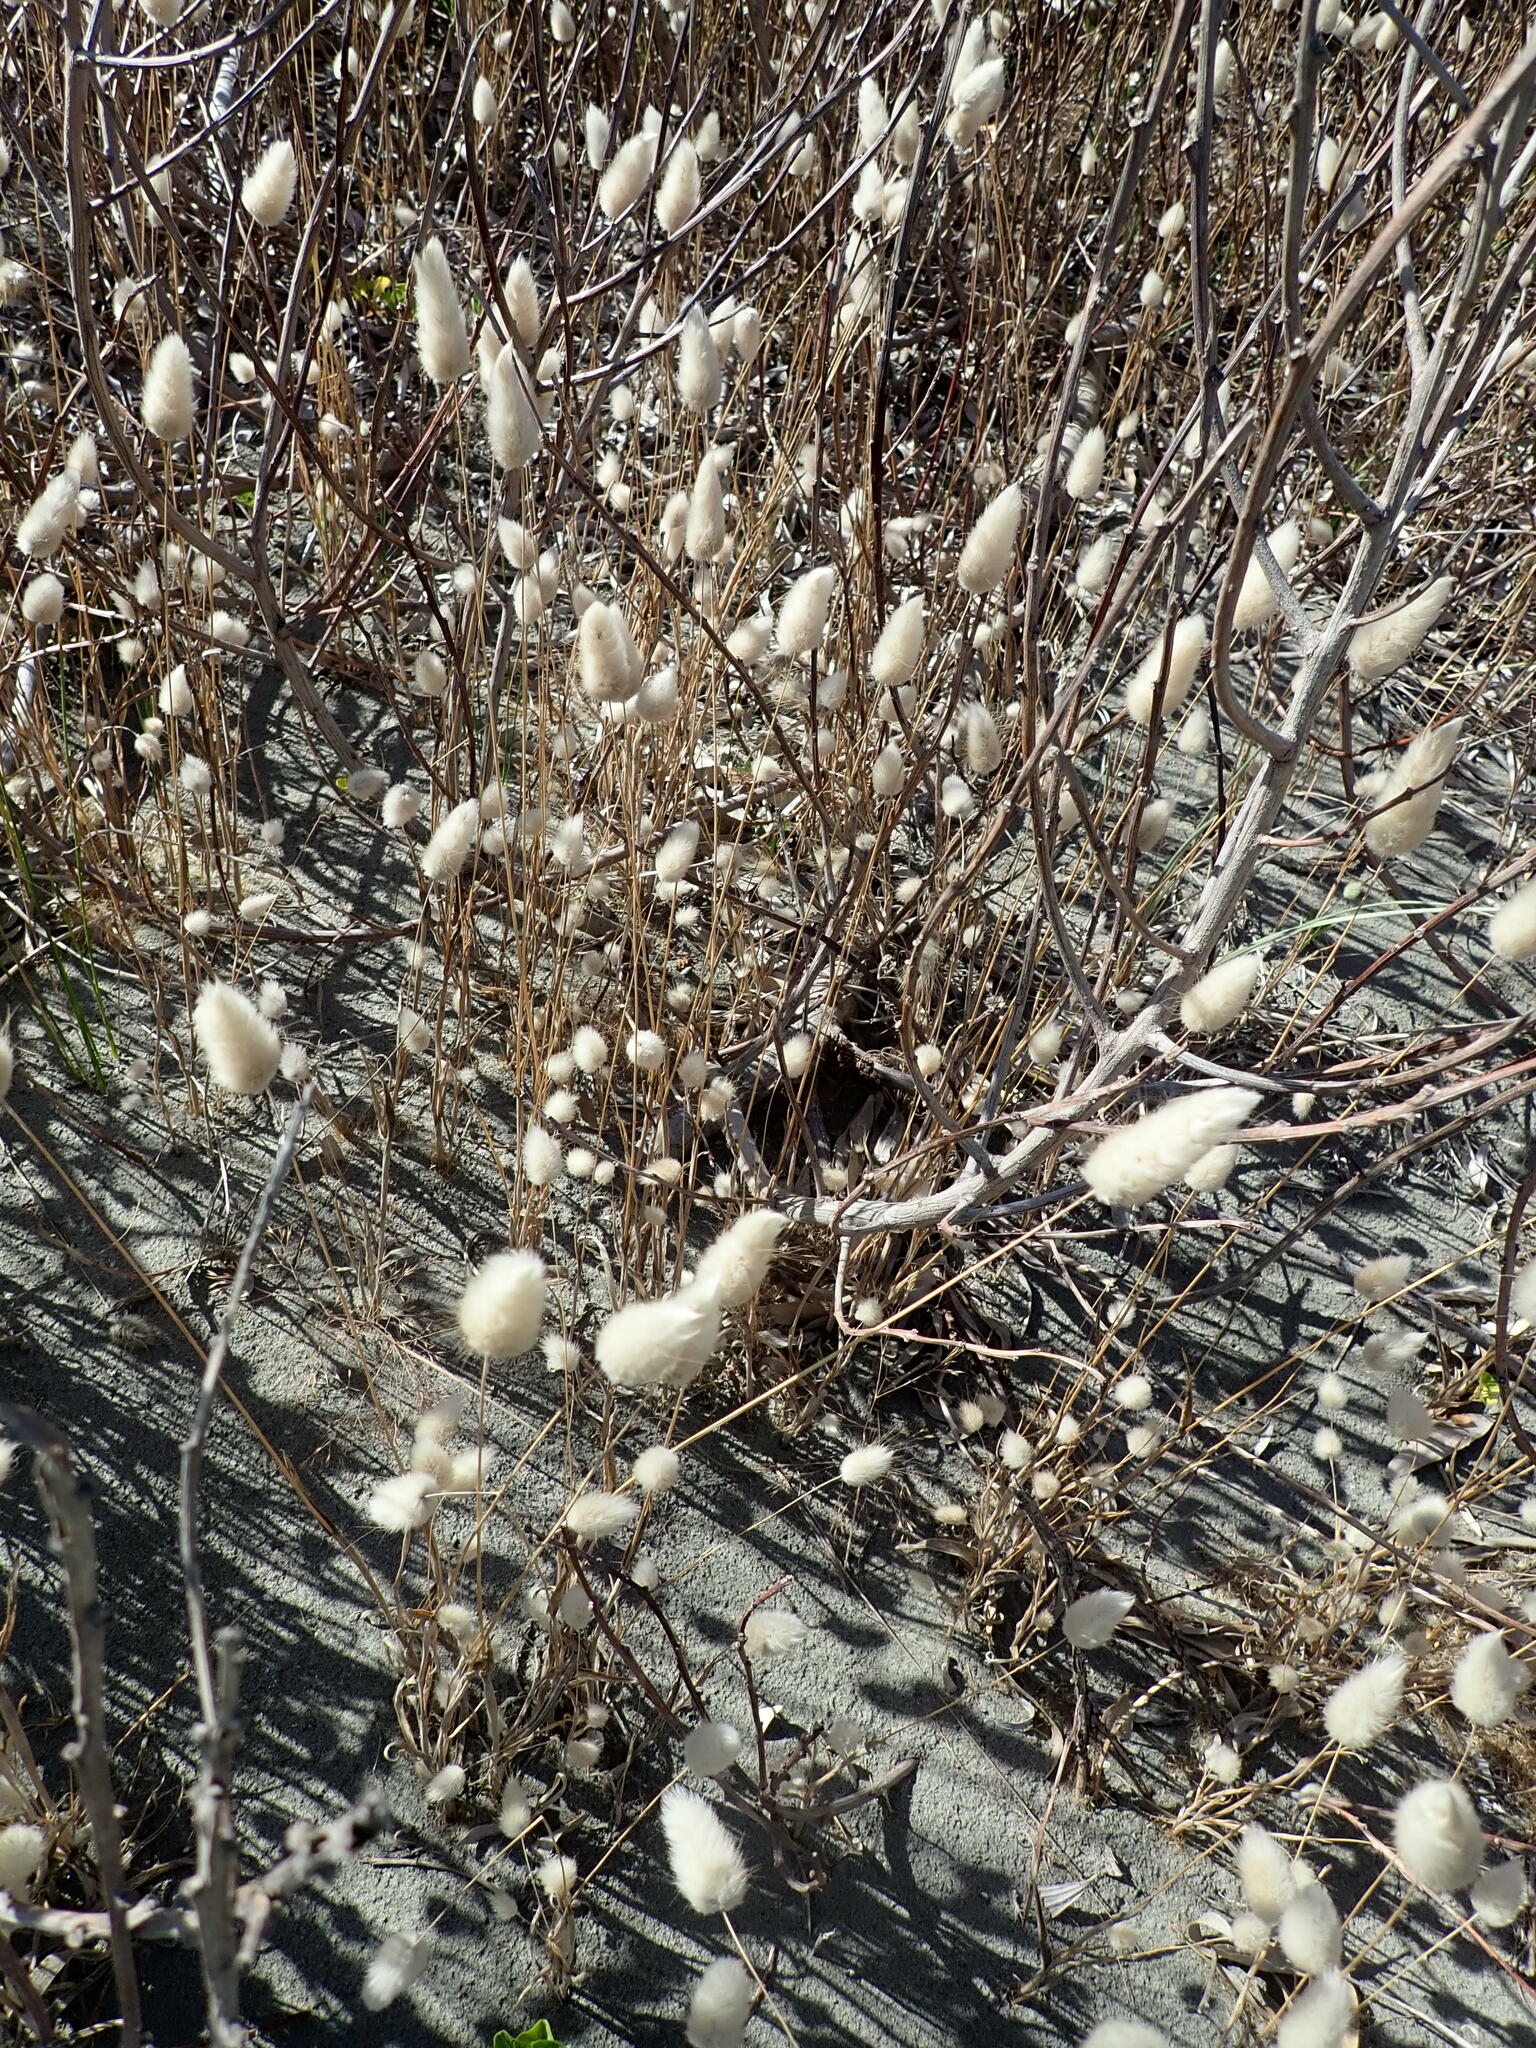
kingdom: Plantae
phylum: Tracheophyta
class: Liliopsida
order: Poales
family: Poaceae
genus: Lagurus
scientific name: Lagurus ovatus
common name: Hare's-tail
